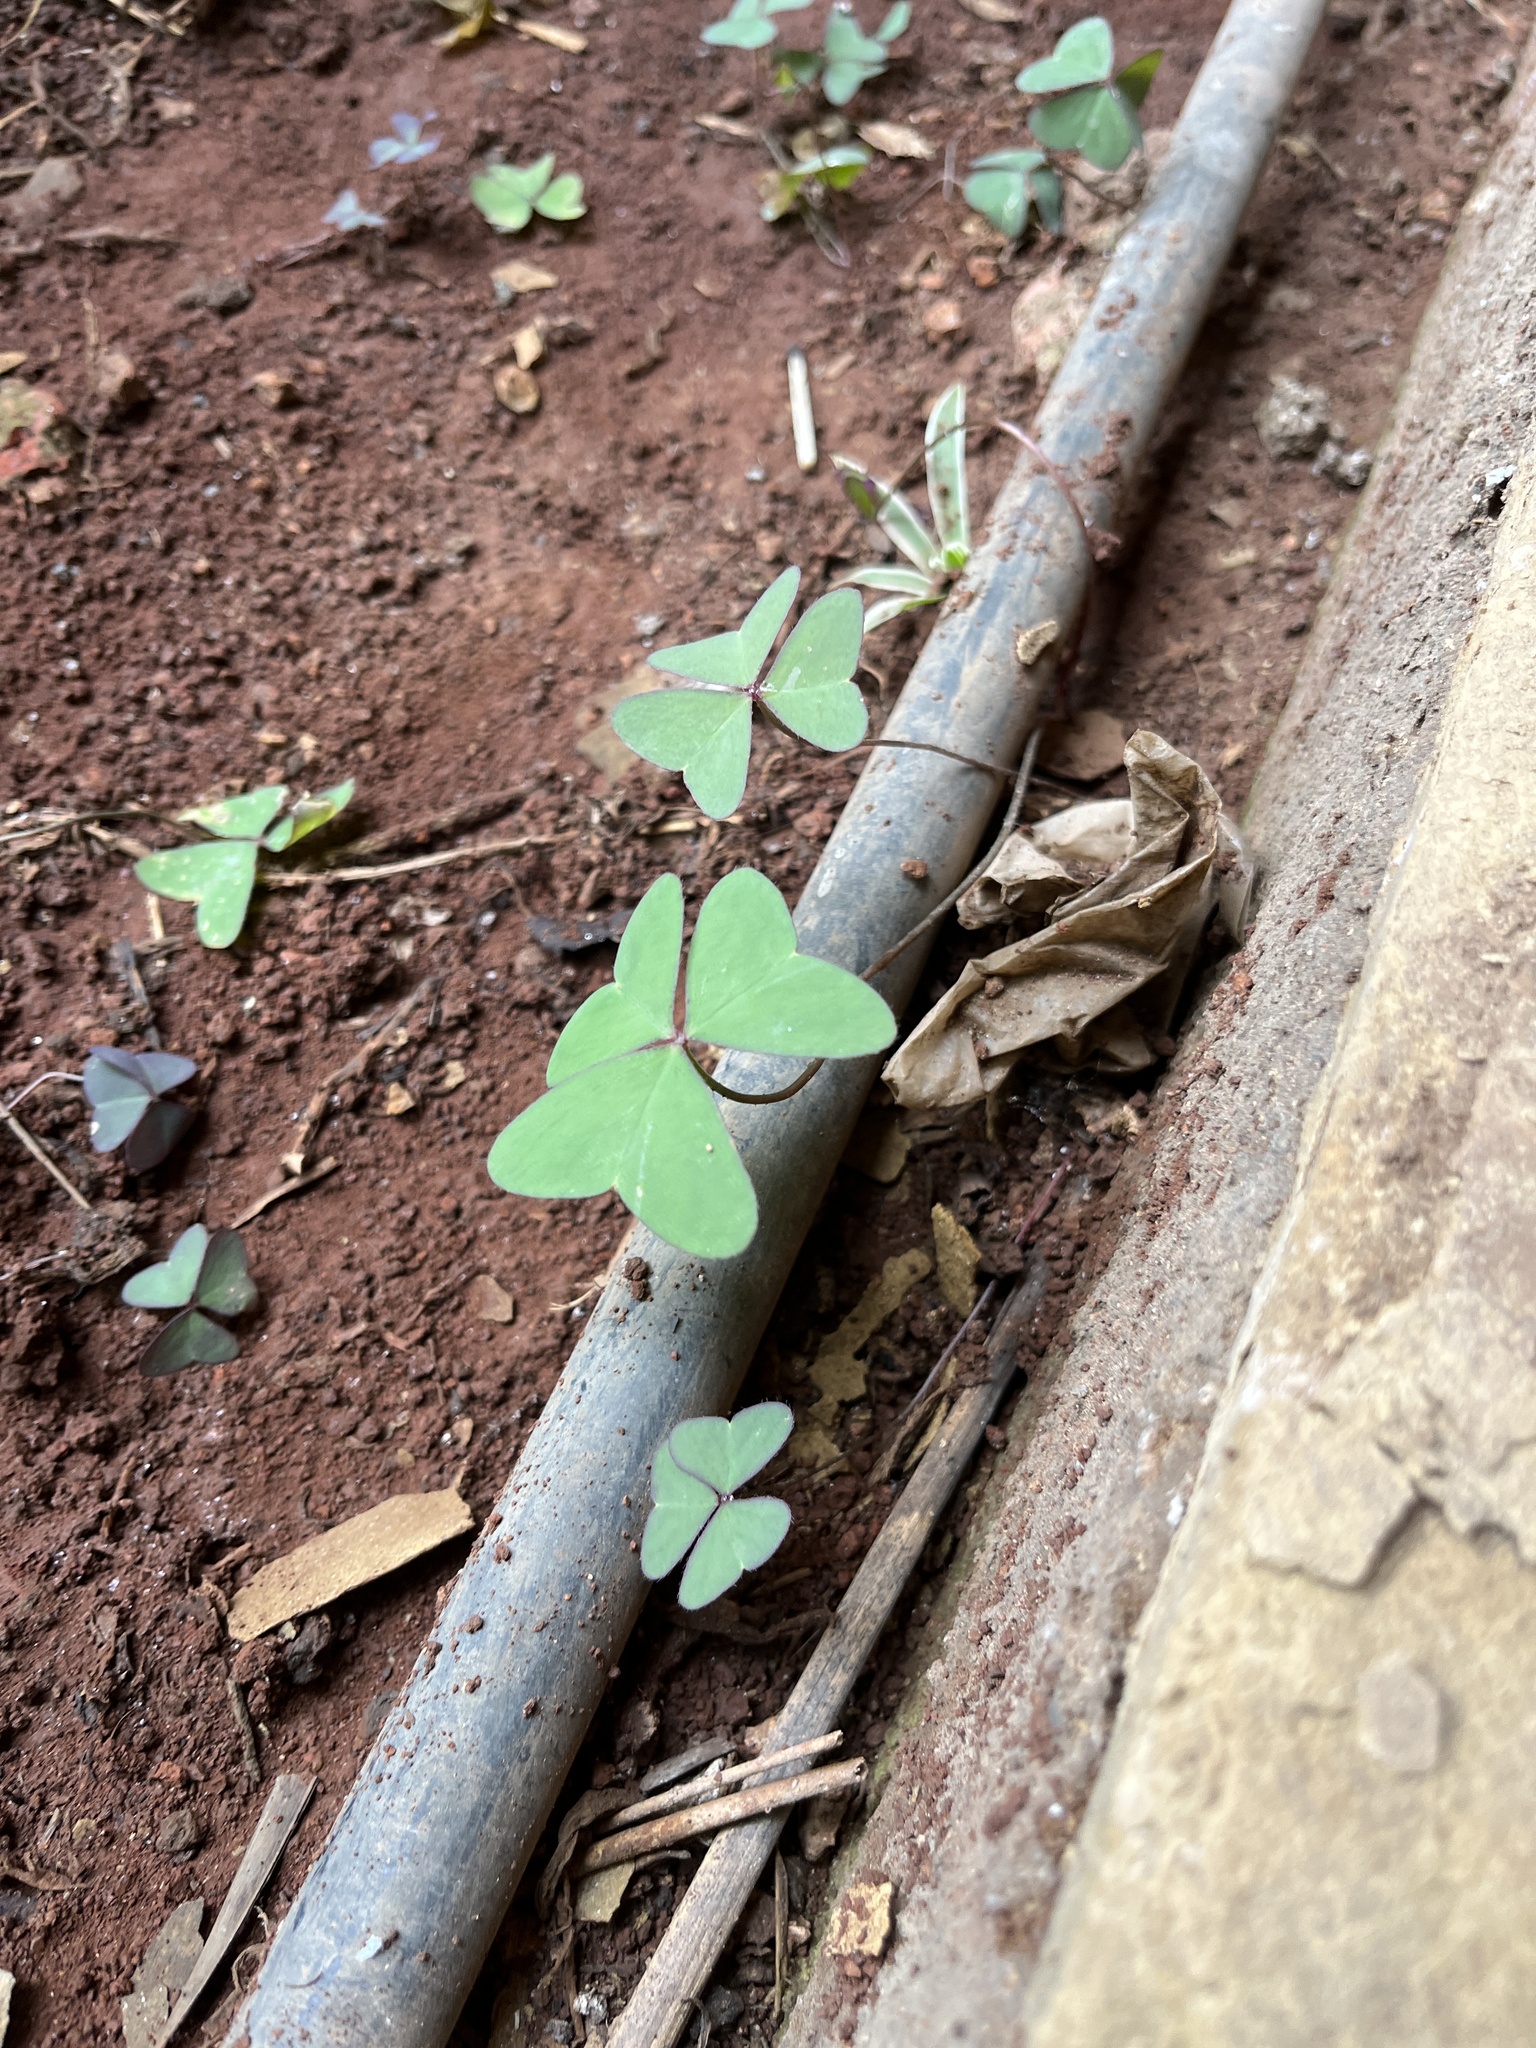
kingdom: Plantae
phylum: Tracheophyta
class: Magnoliopsida
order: Oxalidales
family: Oxalidaceae
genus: Oxalis
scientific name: Oxalis latifolia
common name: Garden pink-sorrel
